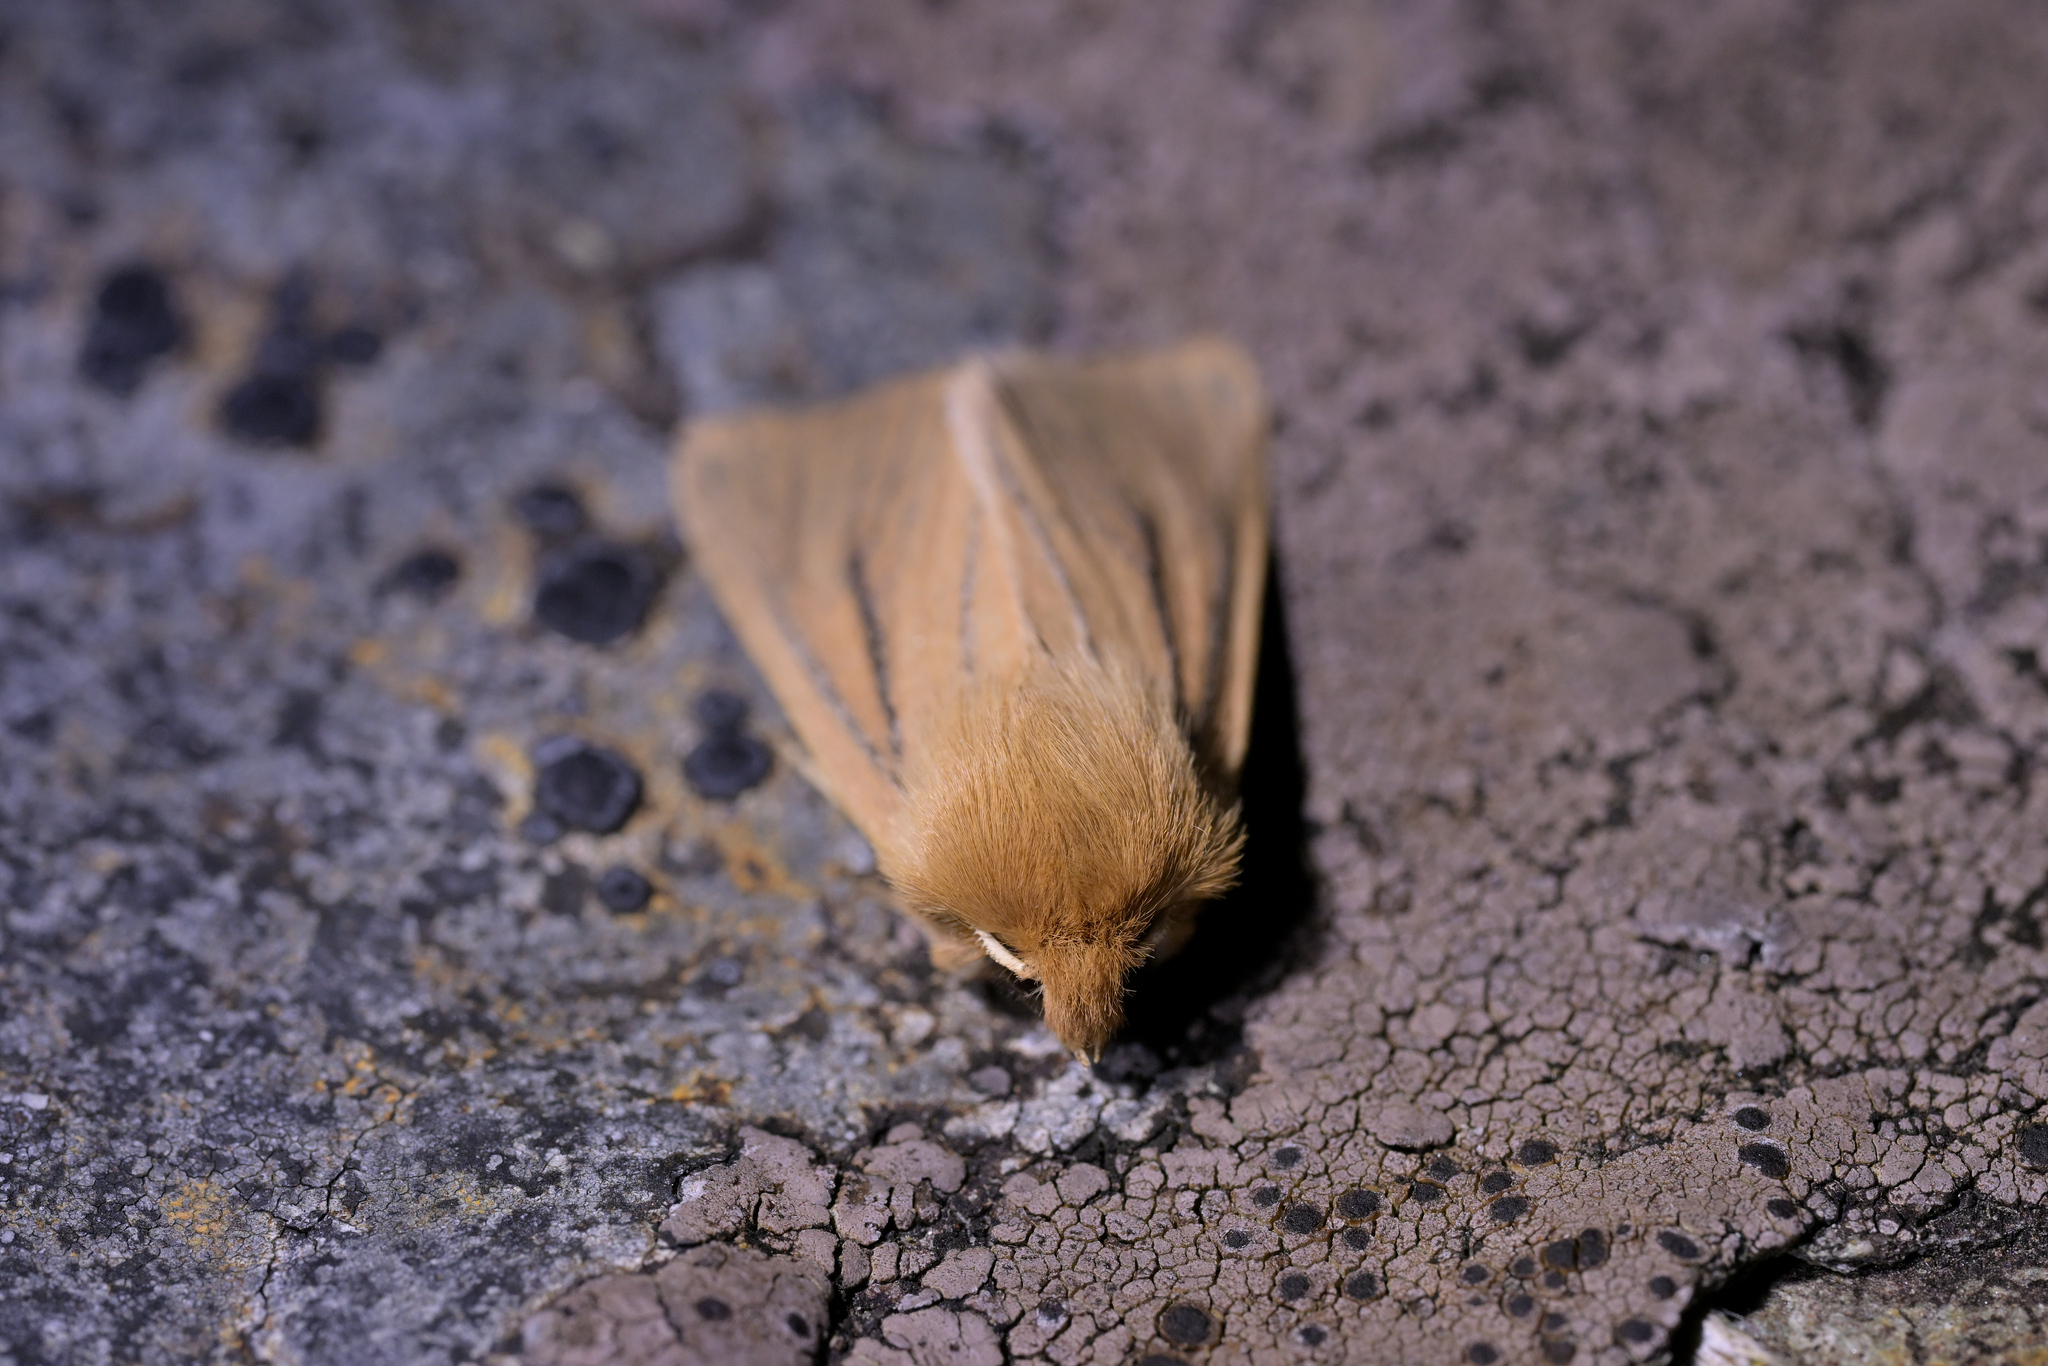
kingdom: Animalia
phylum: Arthropoda
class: Insecta
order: Lepidoptera
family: Noctuidae
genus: Ichneutica
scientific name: Ichneutica
